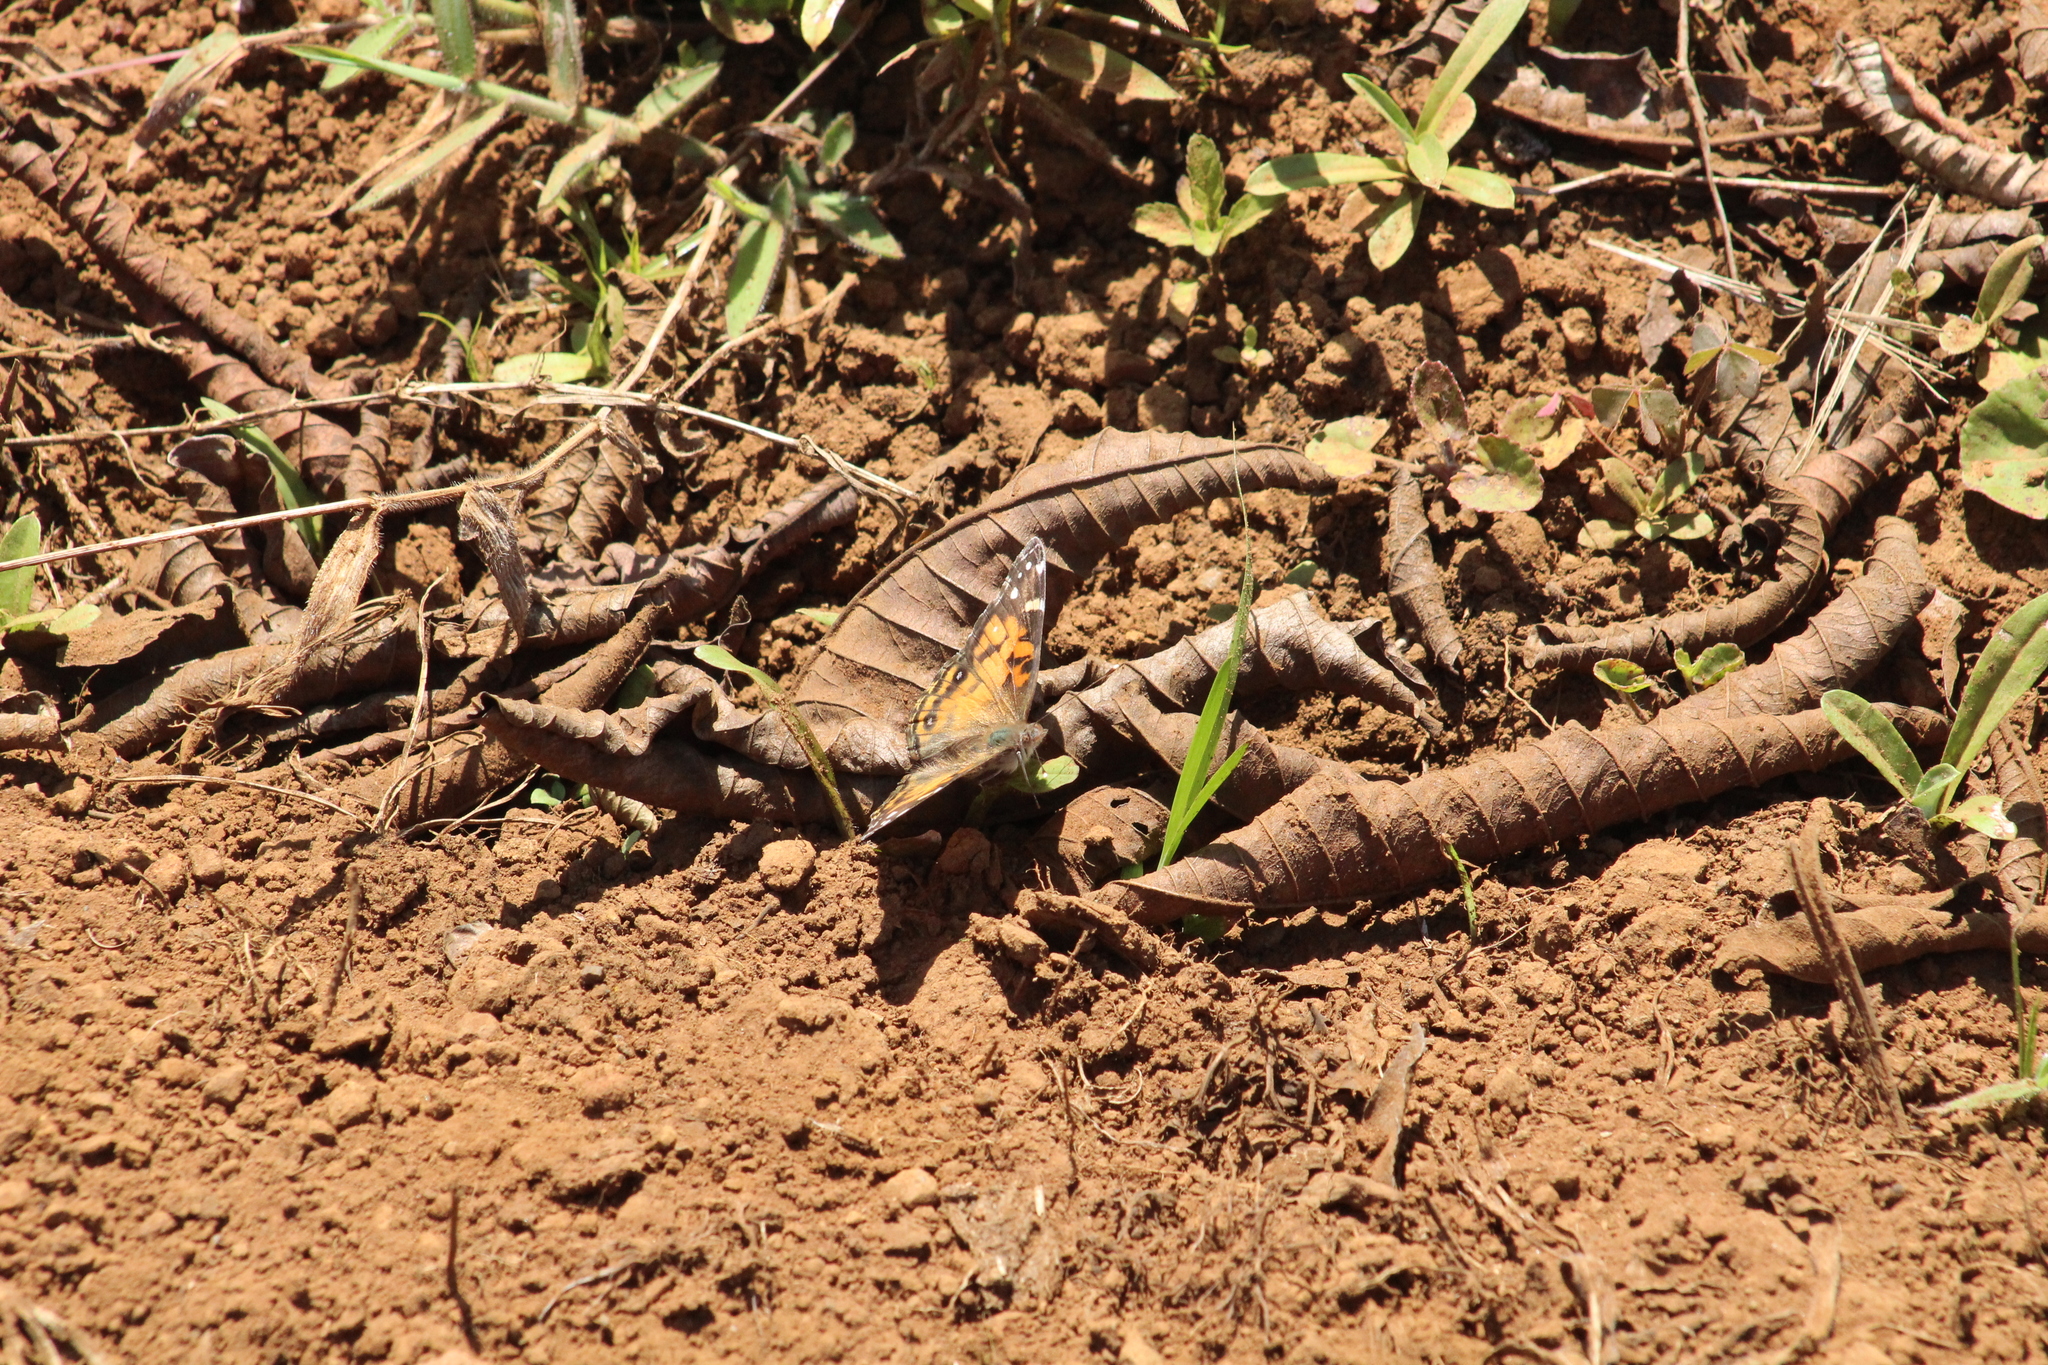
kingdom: Animalia
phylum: Arthropoda
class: Insecta
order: Lepidoptera
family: Nymphalidae
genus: Vanessa
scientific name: Vanessa virginiensis
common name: American lady
